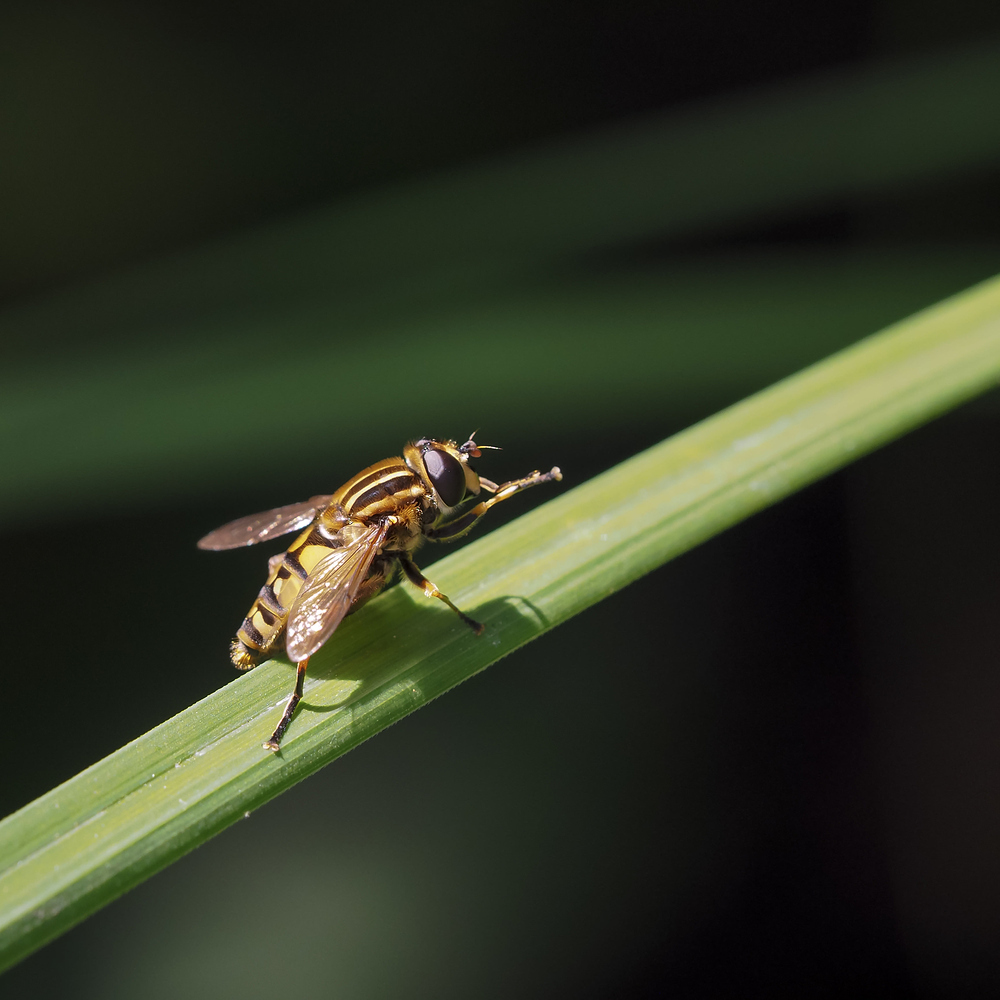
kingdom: Animalia
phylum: Arthropoda
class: Insecta
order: Diptera
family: Syrphidae
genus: Helophilus
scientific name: Helophilus pendulus
